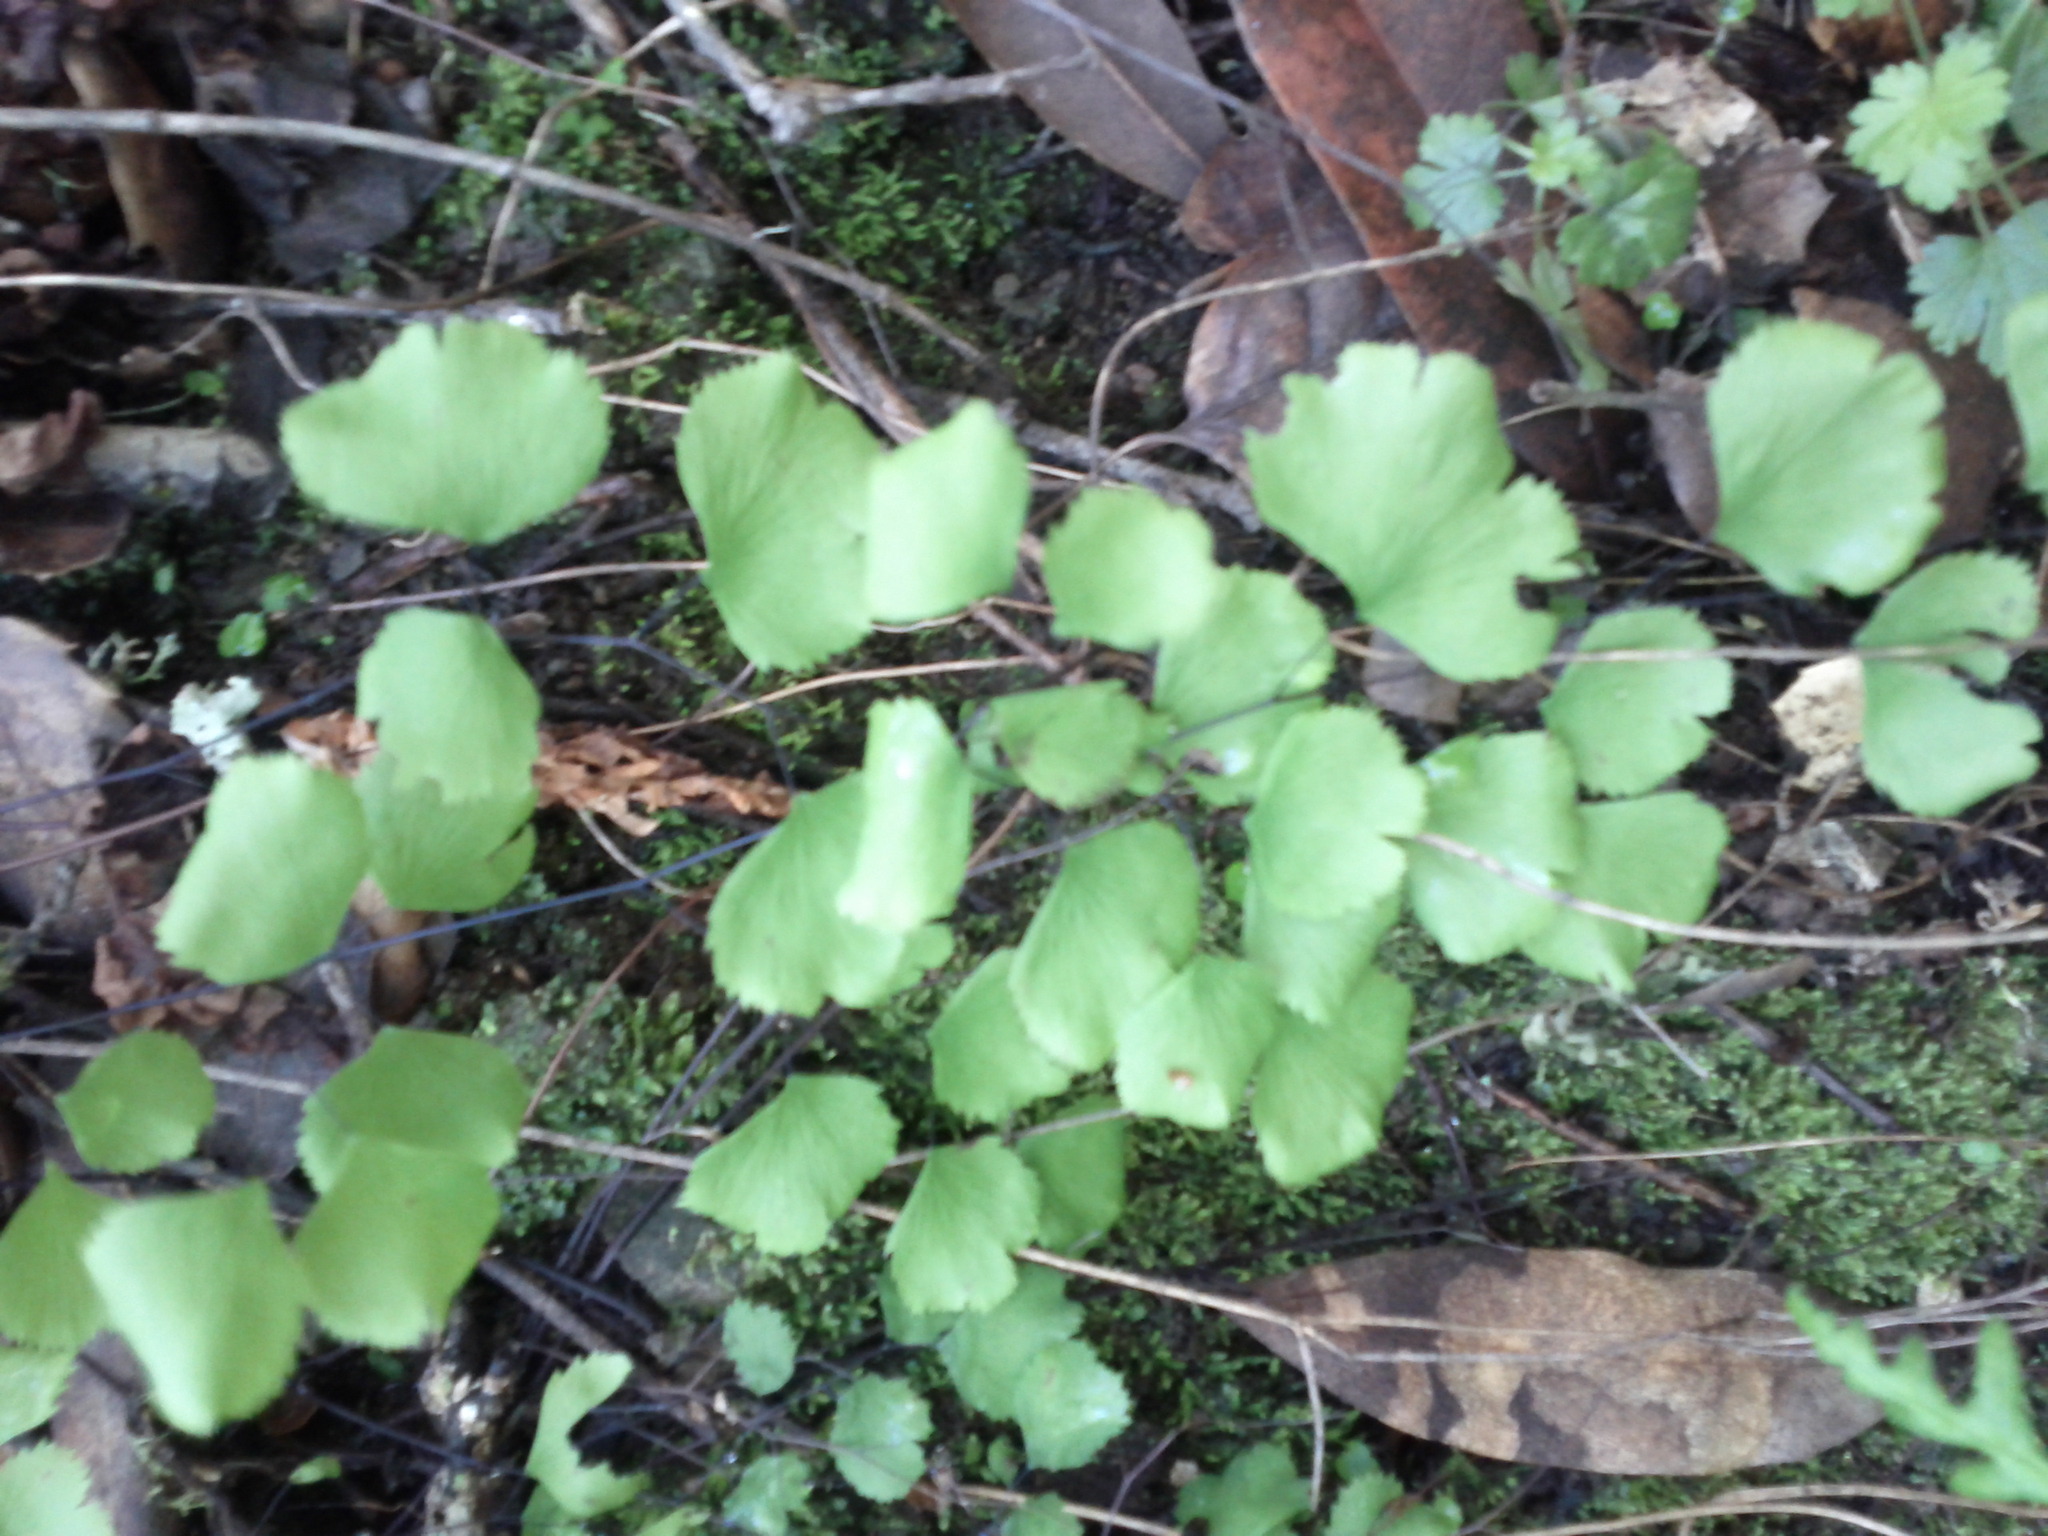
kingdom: Plantae
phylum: Tracheophyta
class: Polypodiopsida
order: Polypodiales
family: Pteridaceae
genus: Adiantum
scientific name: Adiantum jordanii
